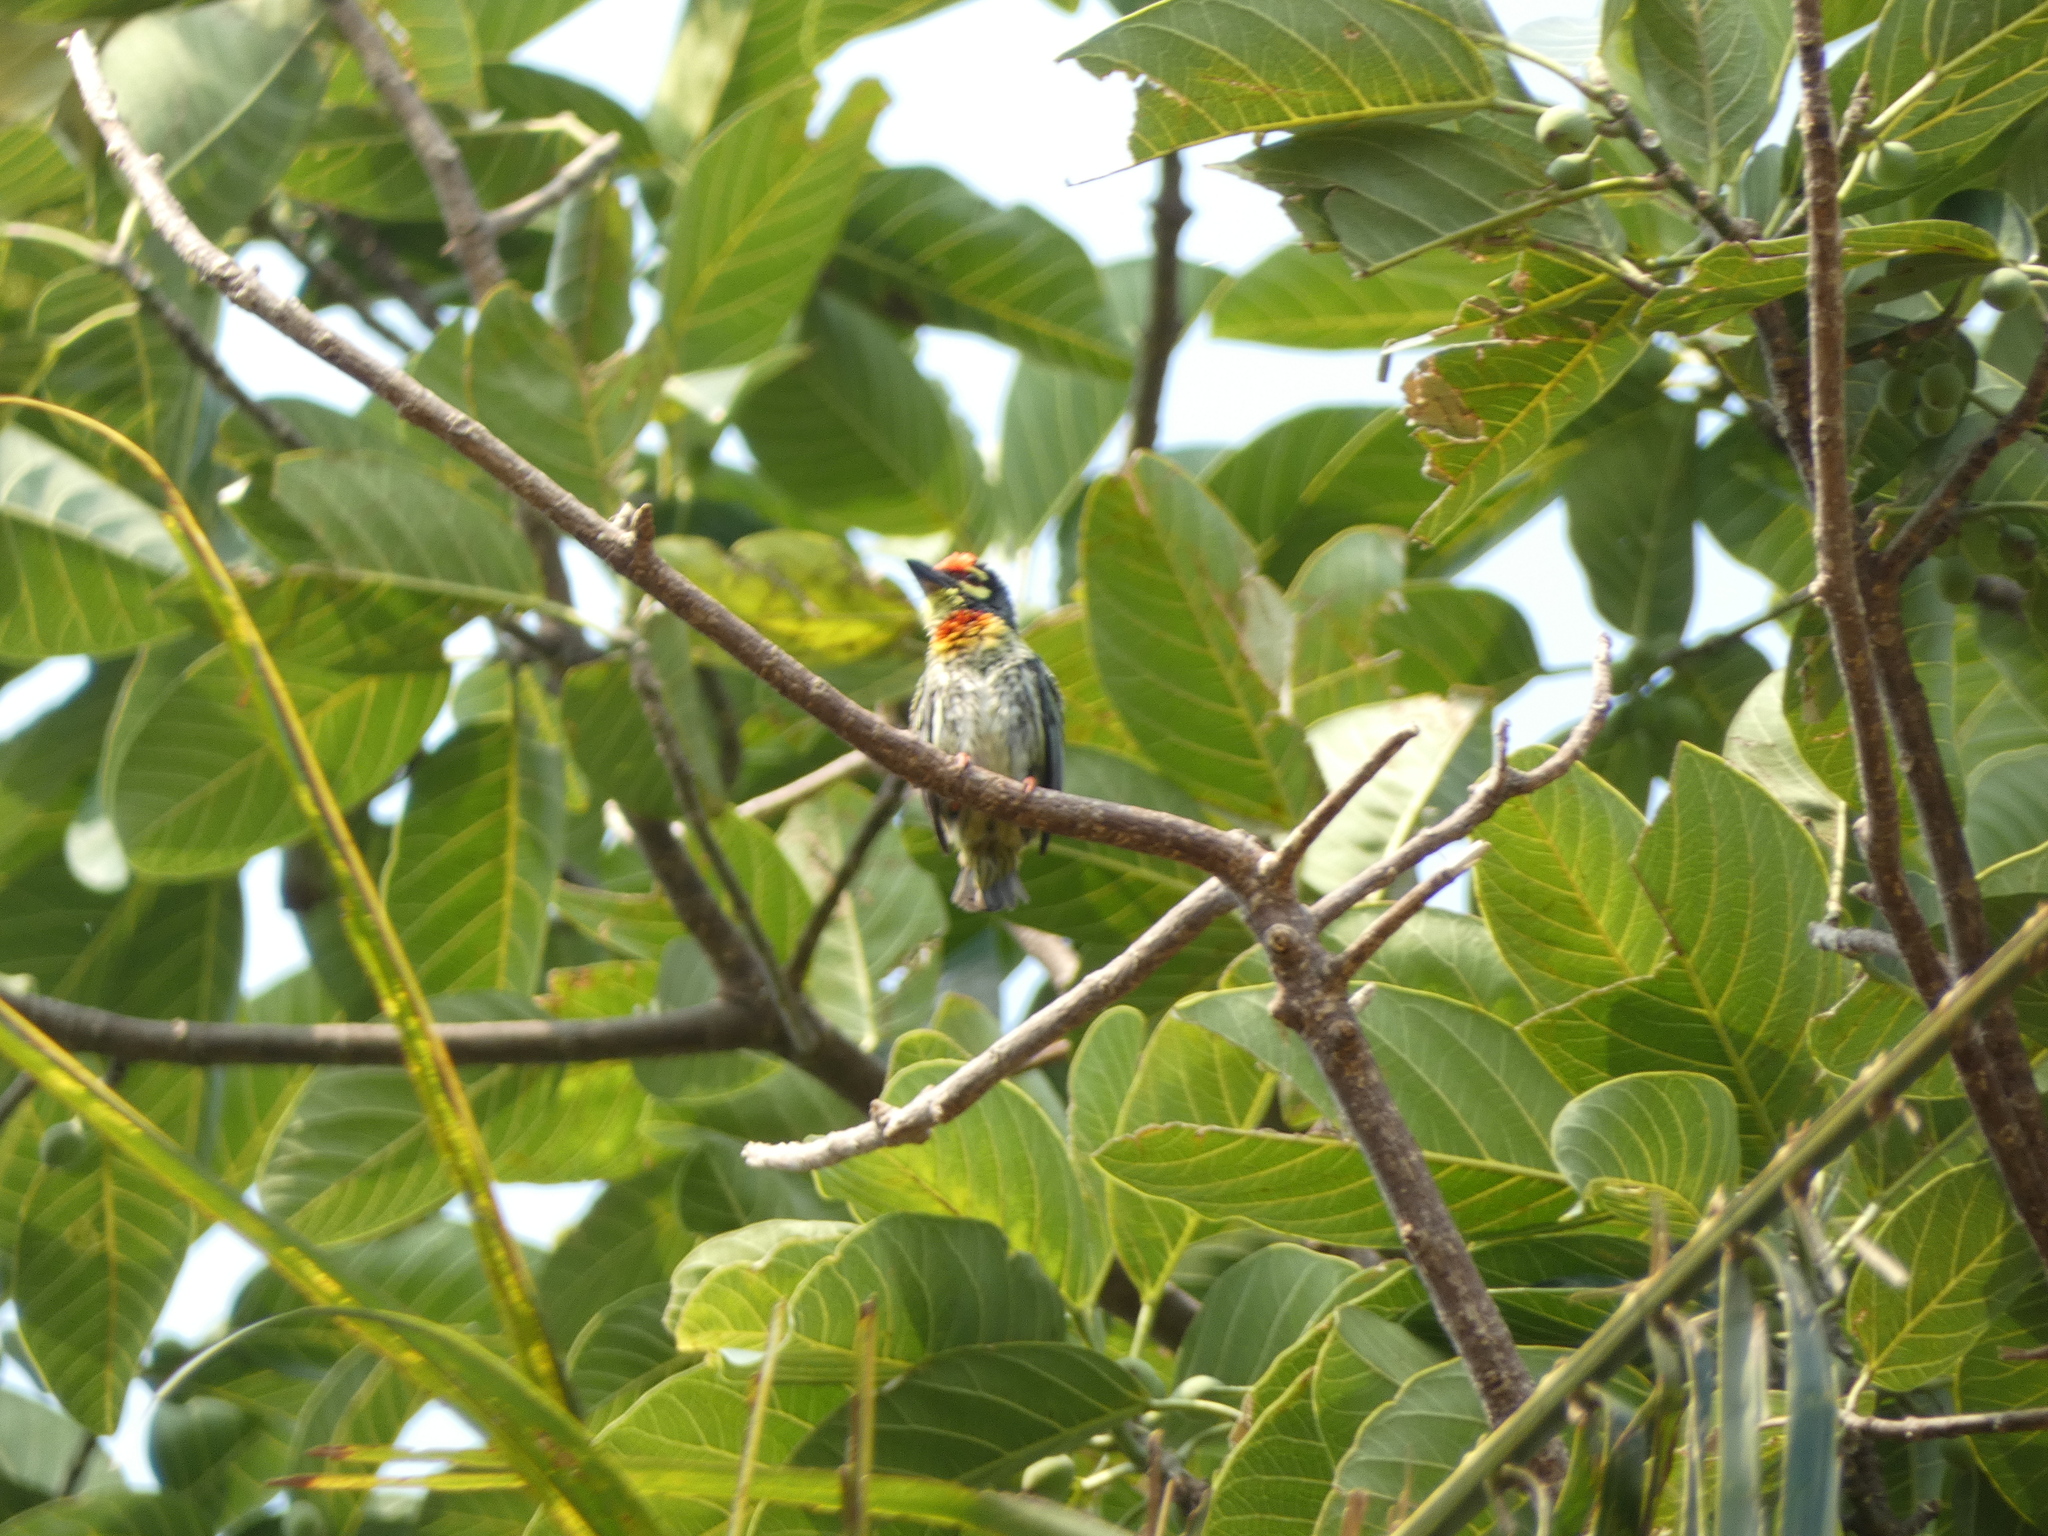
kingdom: Animalia
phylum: Chordata
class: Aves
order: Piciformes
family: Megalaimidae
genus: Psilopogon
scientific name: Psilopogon haemacephalus
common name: Coppersmith barbet
